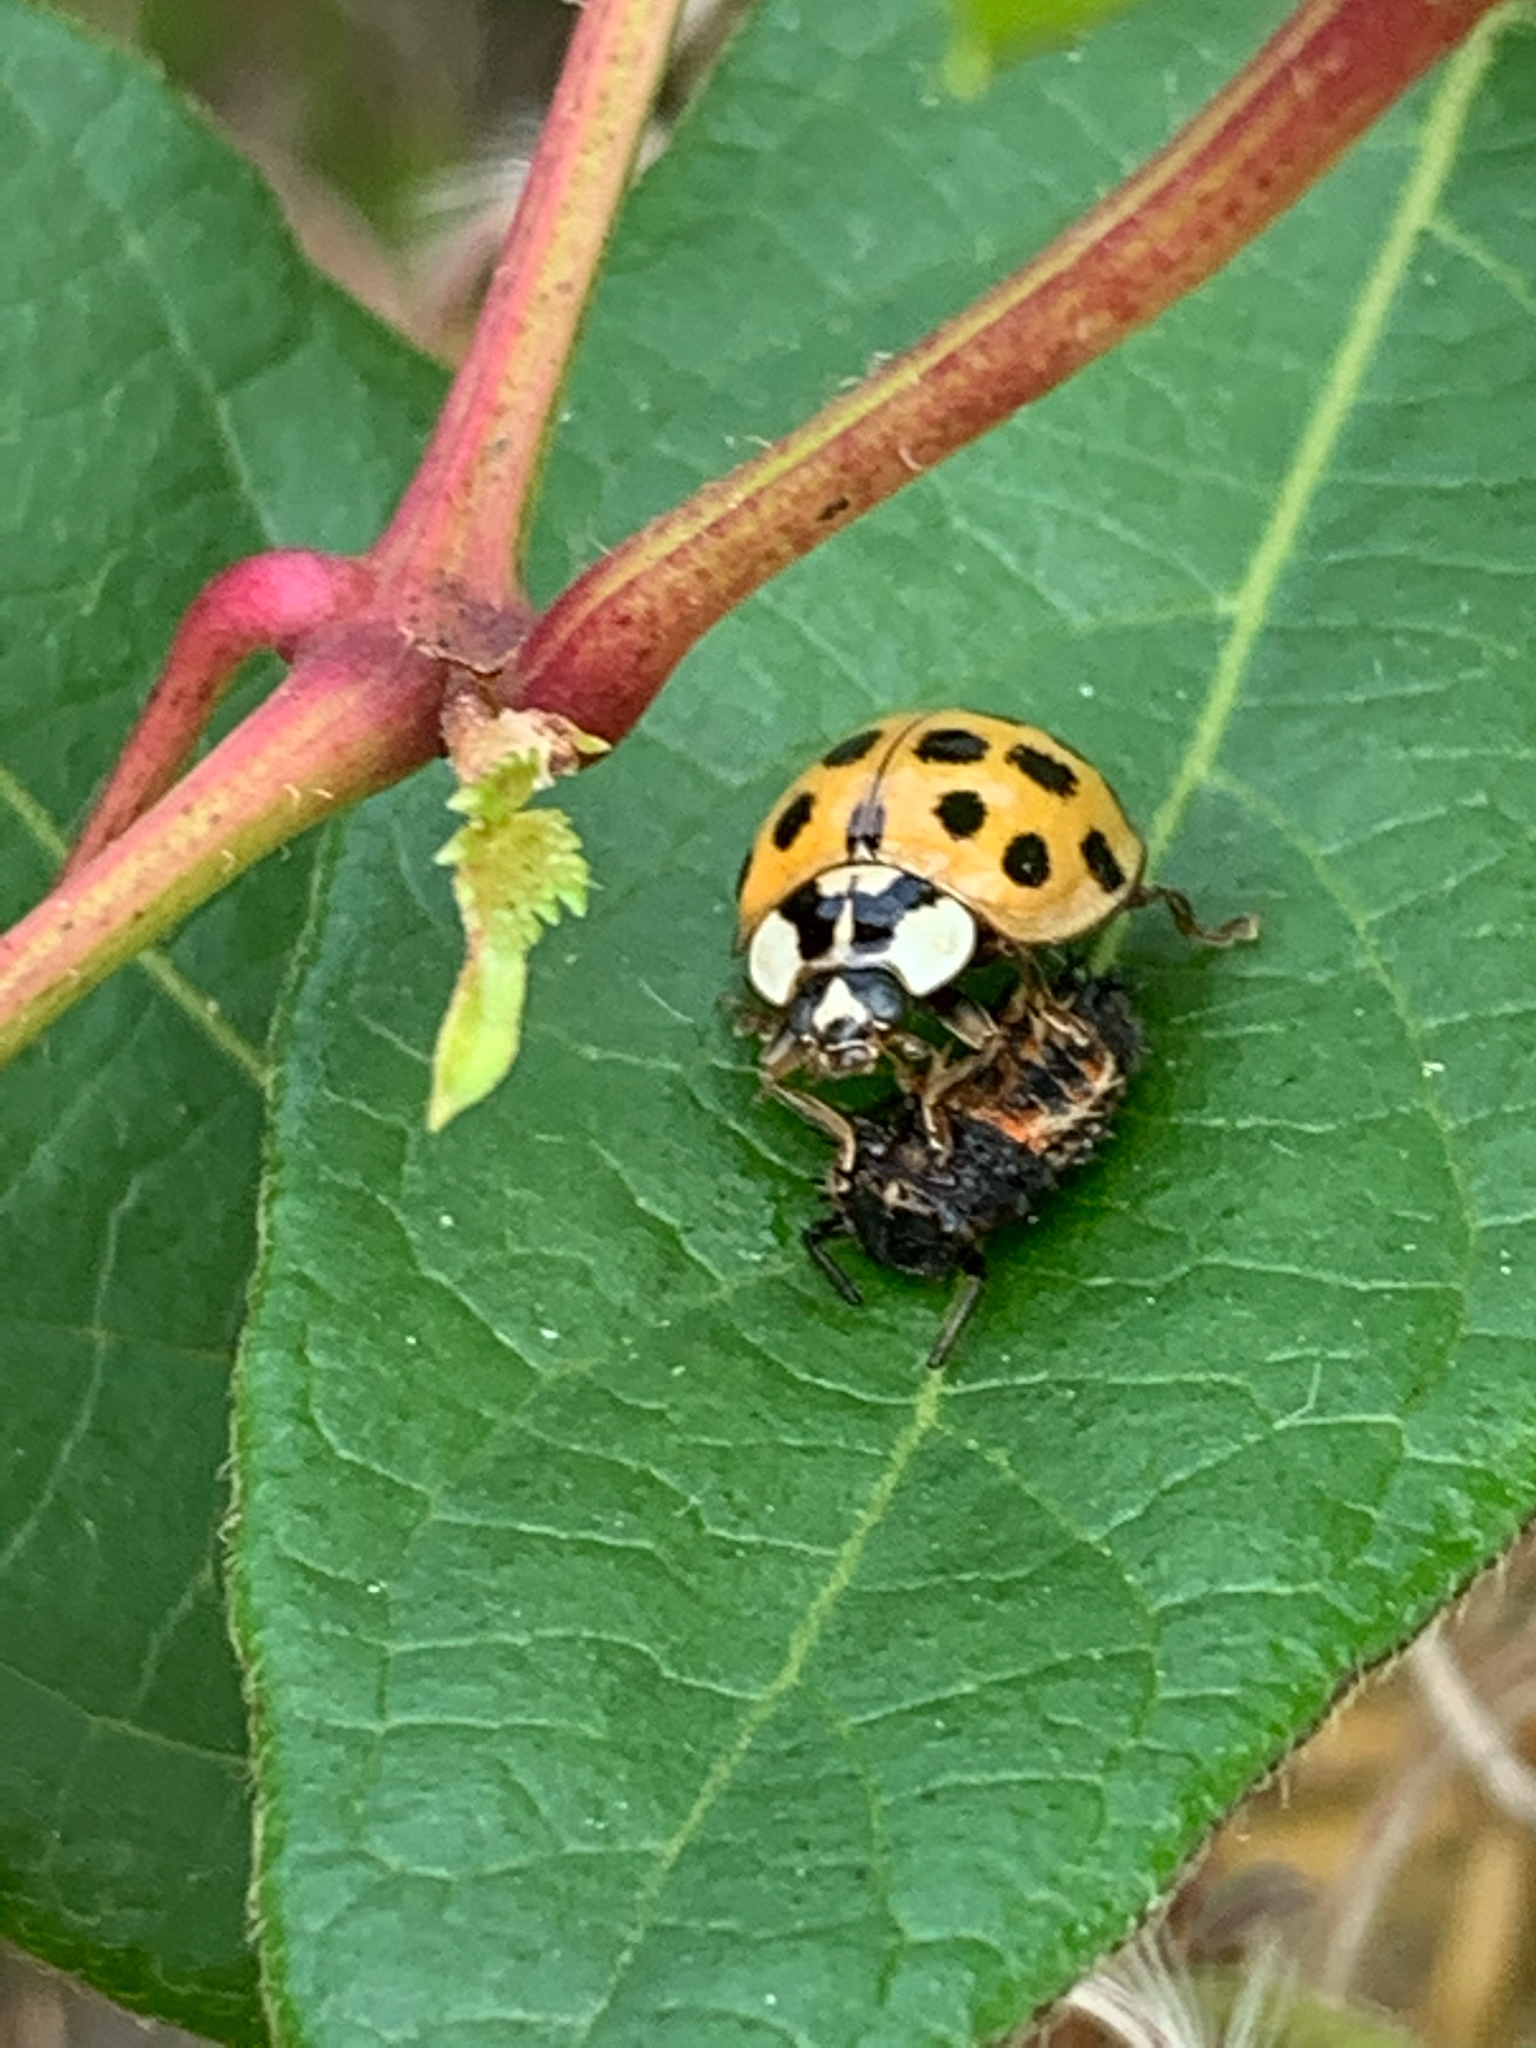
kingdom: Animalia
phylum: Arthropoda
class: Insecta
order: Coleoptera
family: Coccinellidae
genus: Harmonia
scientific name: Harmonia axyridis
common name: Harlequin ladybird
